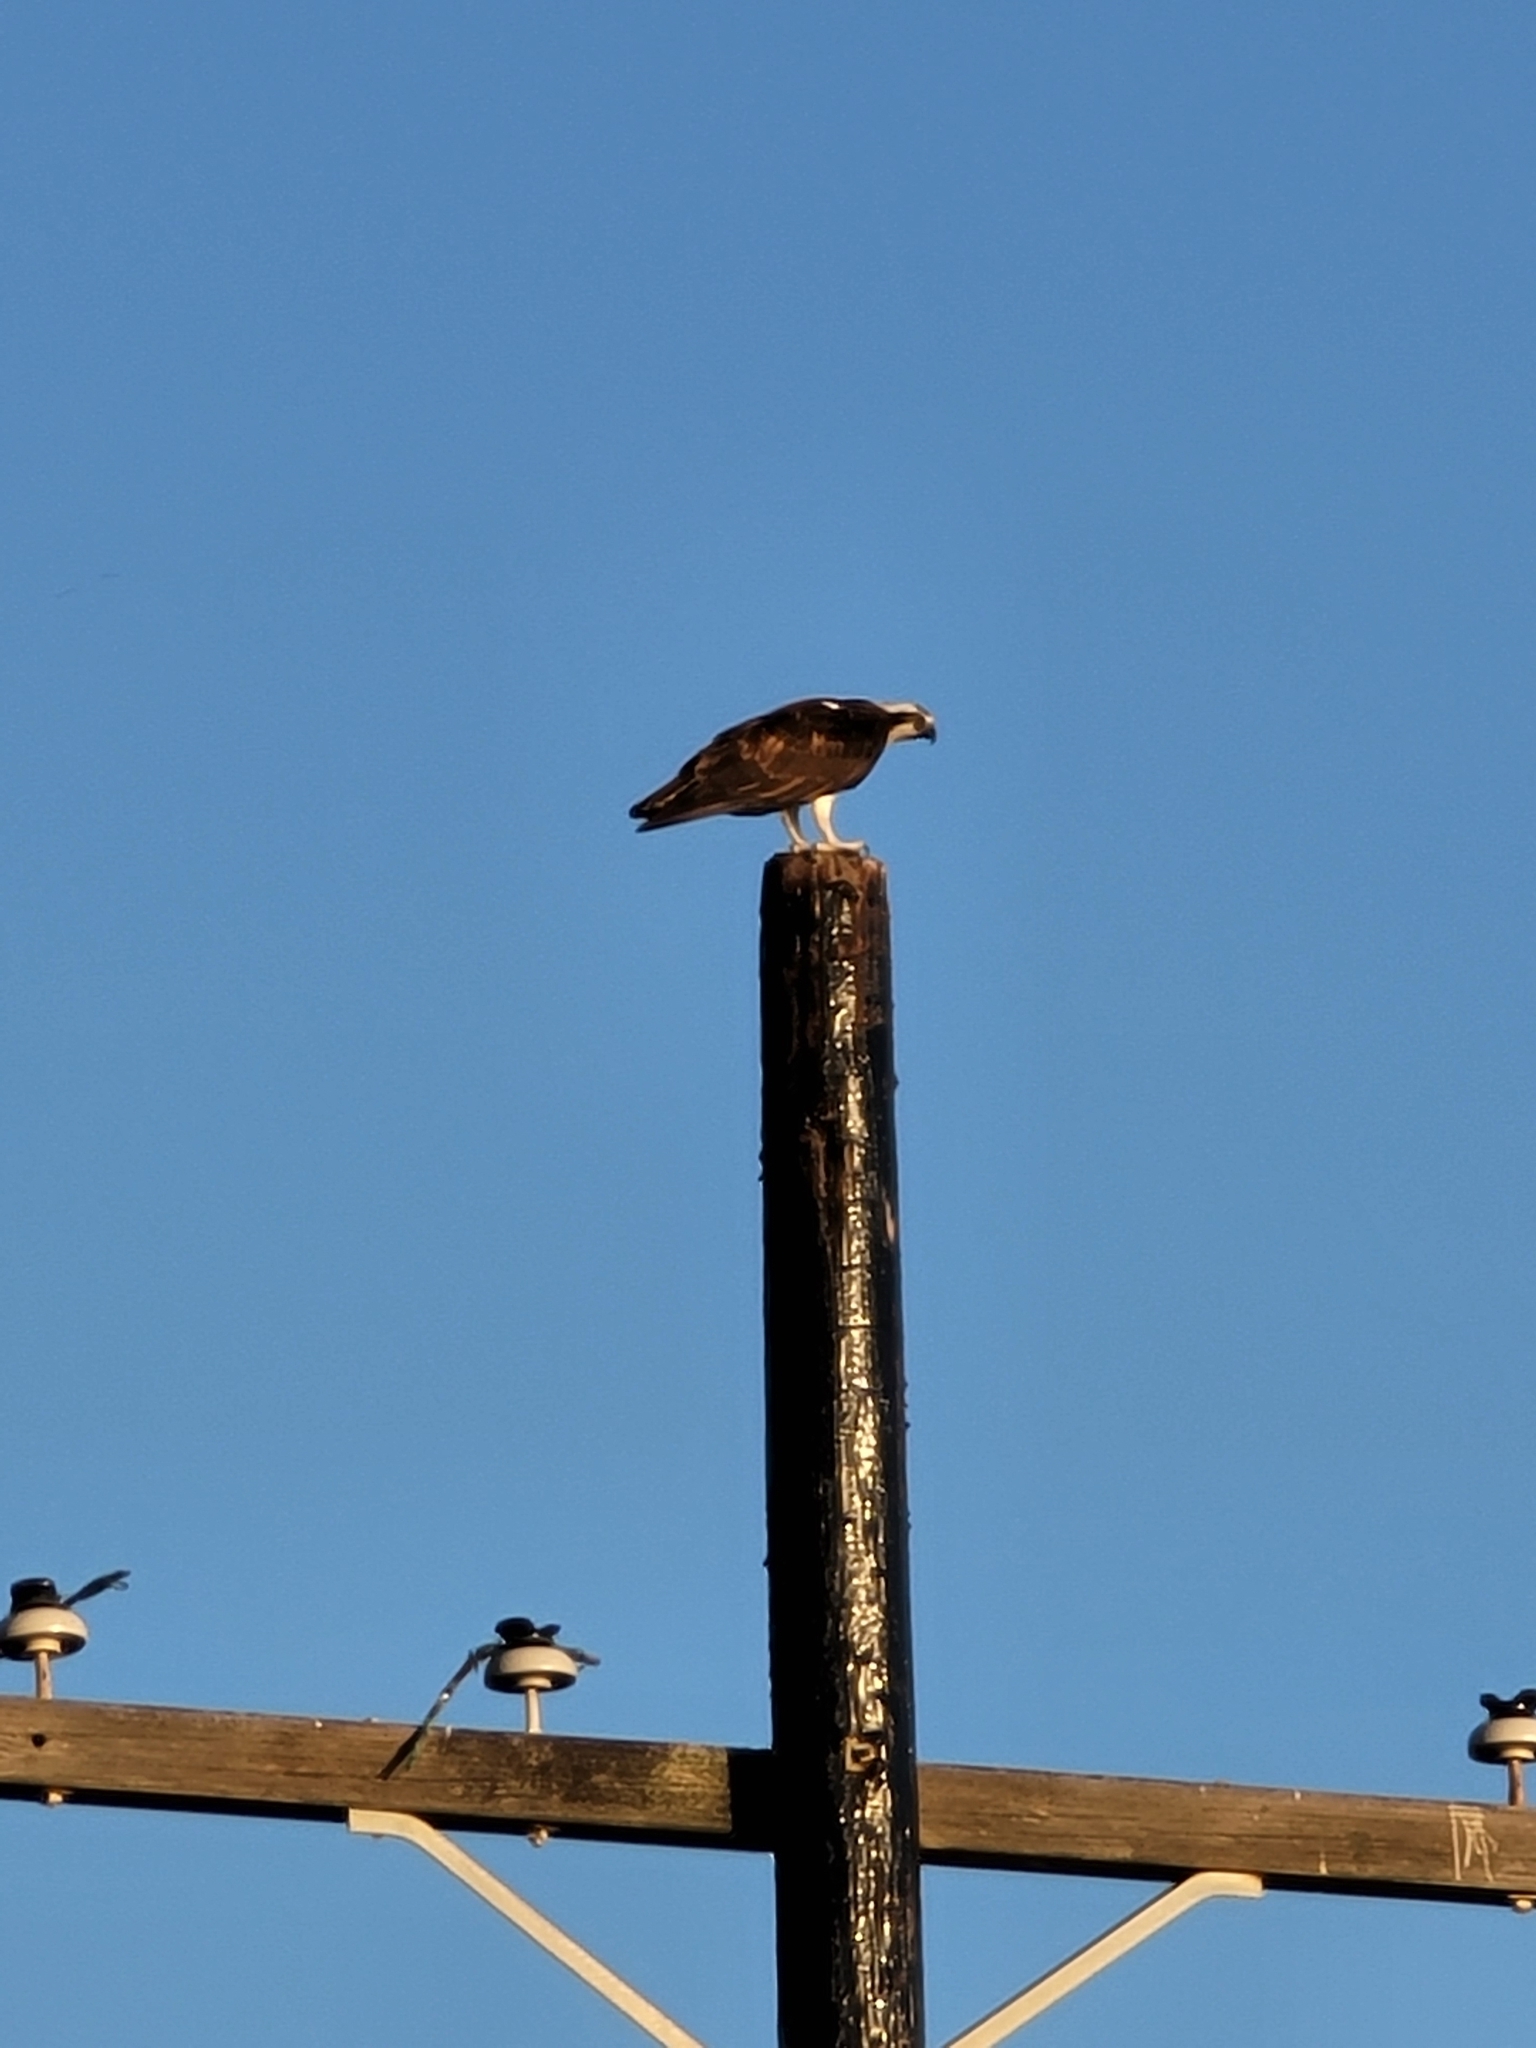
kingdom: Animalia
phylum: Chordata
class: Aves
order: Accipitriformes
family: Pandionidae
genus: Pandion
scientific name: Pandion haliaetus
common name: Osprey
